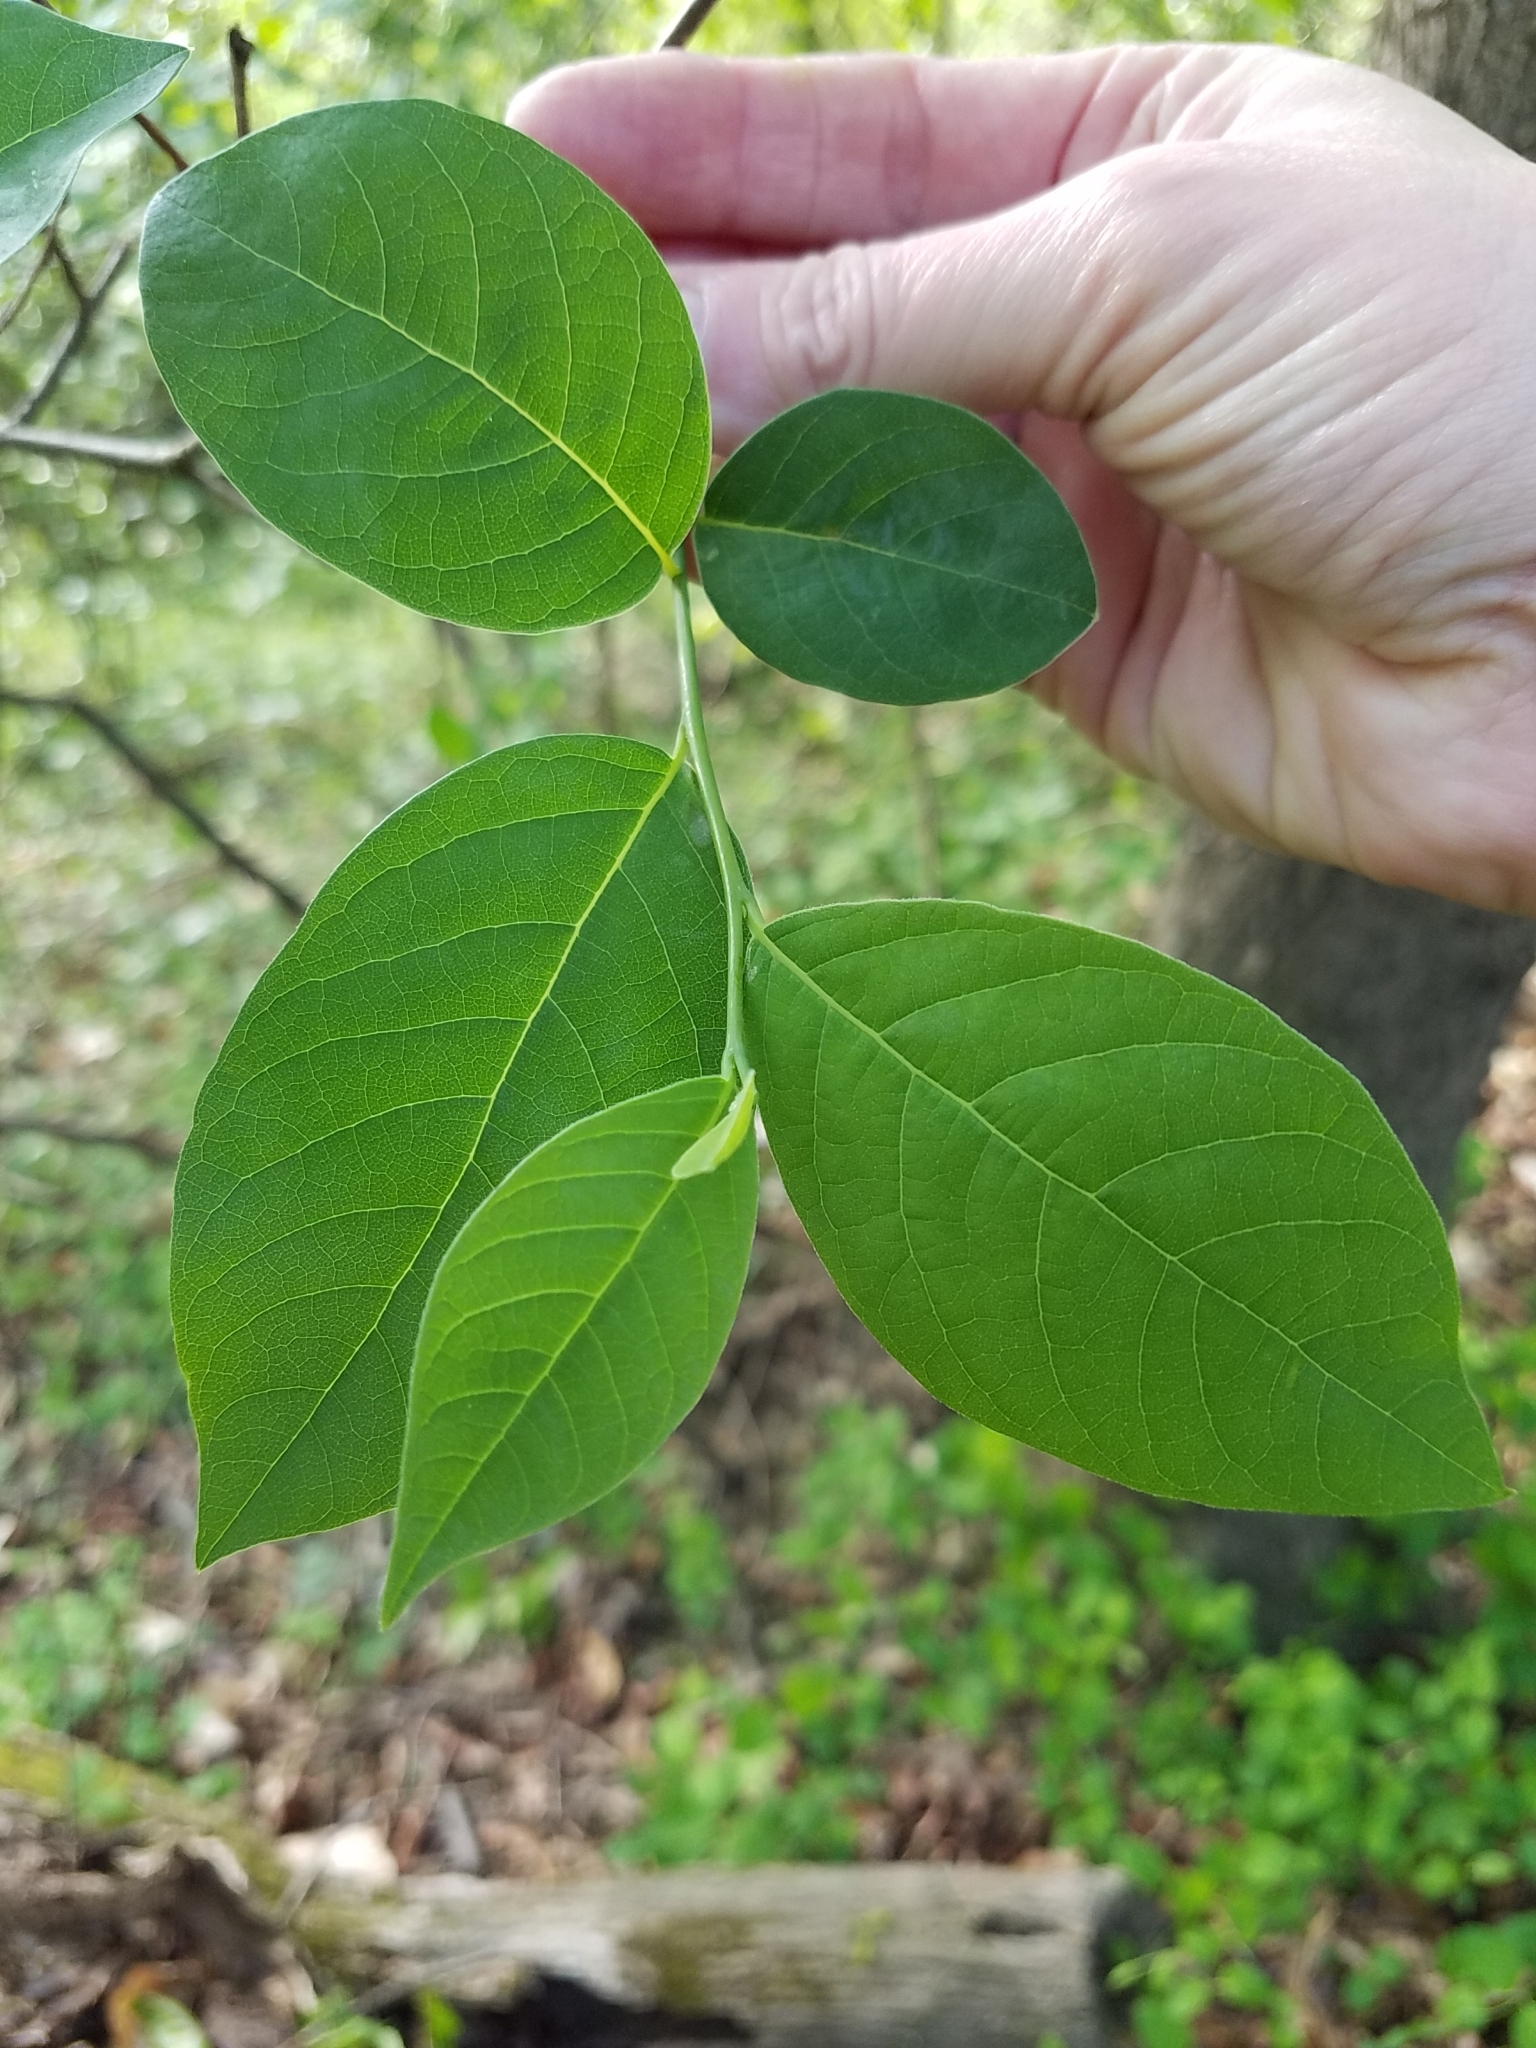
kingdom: Plantae
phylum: Tracheophyta
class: Magnoliopsida
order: Laurales
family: Lauraceae
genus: Lindera
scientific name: Lindera benzoin
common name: Spicebush
